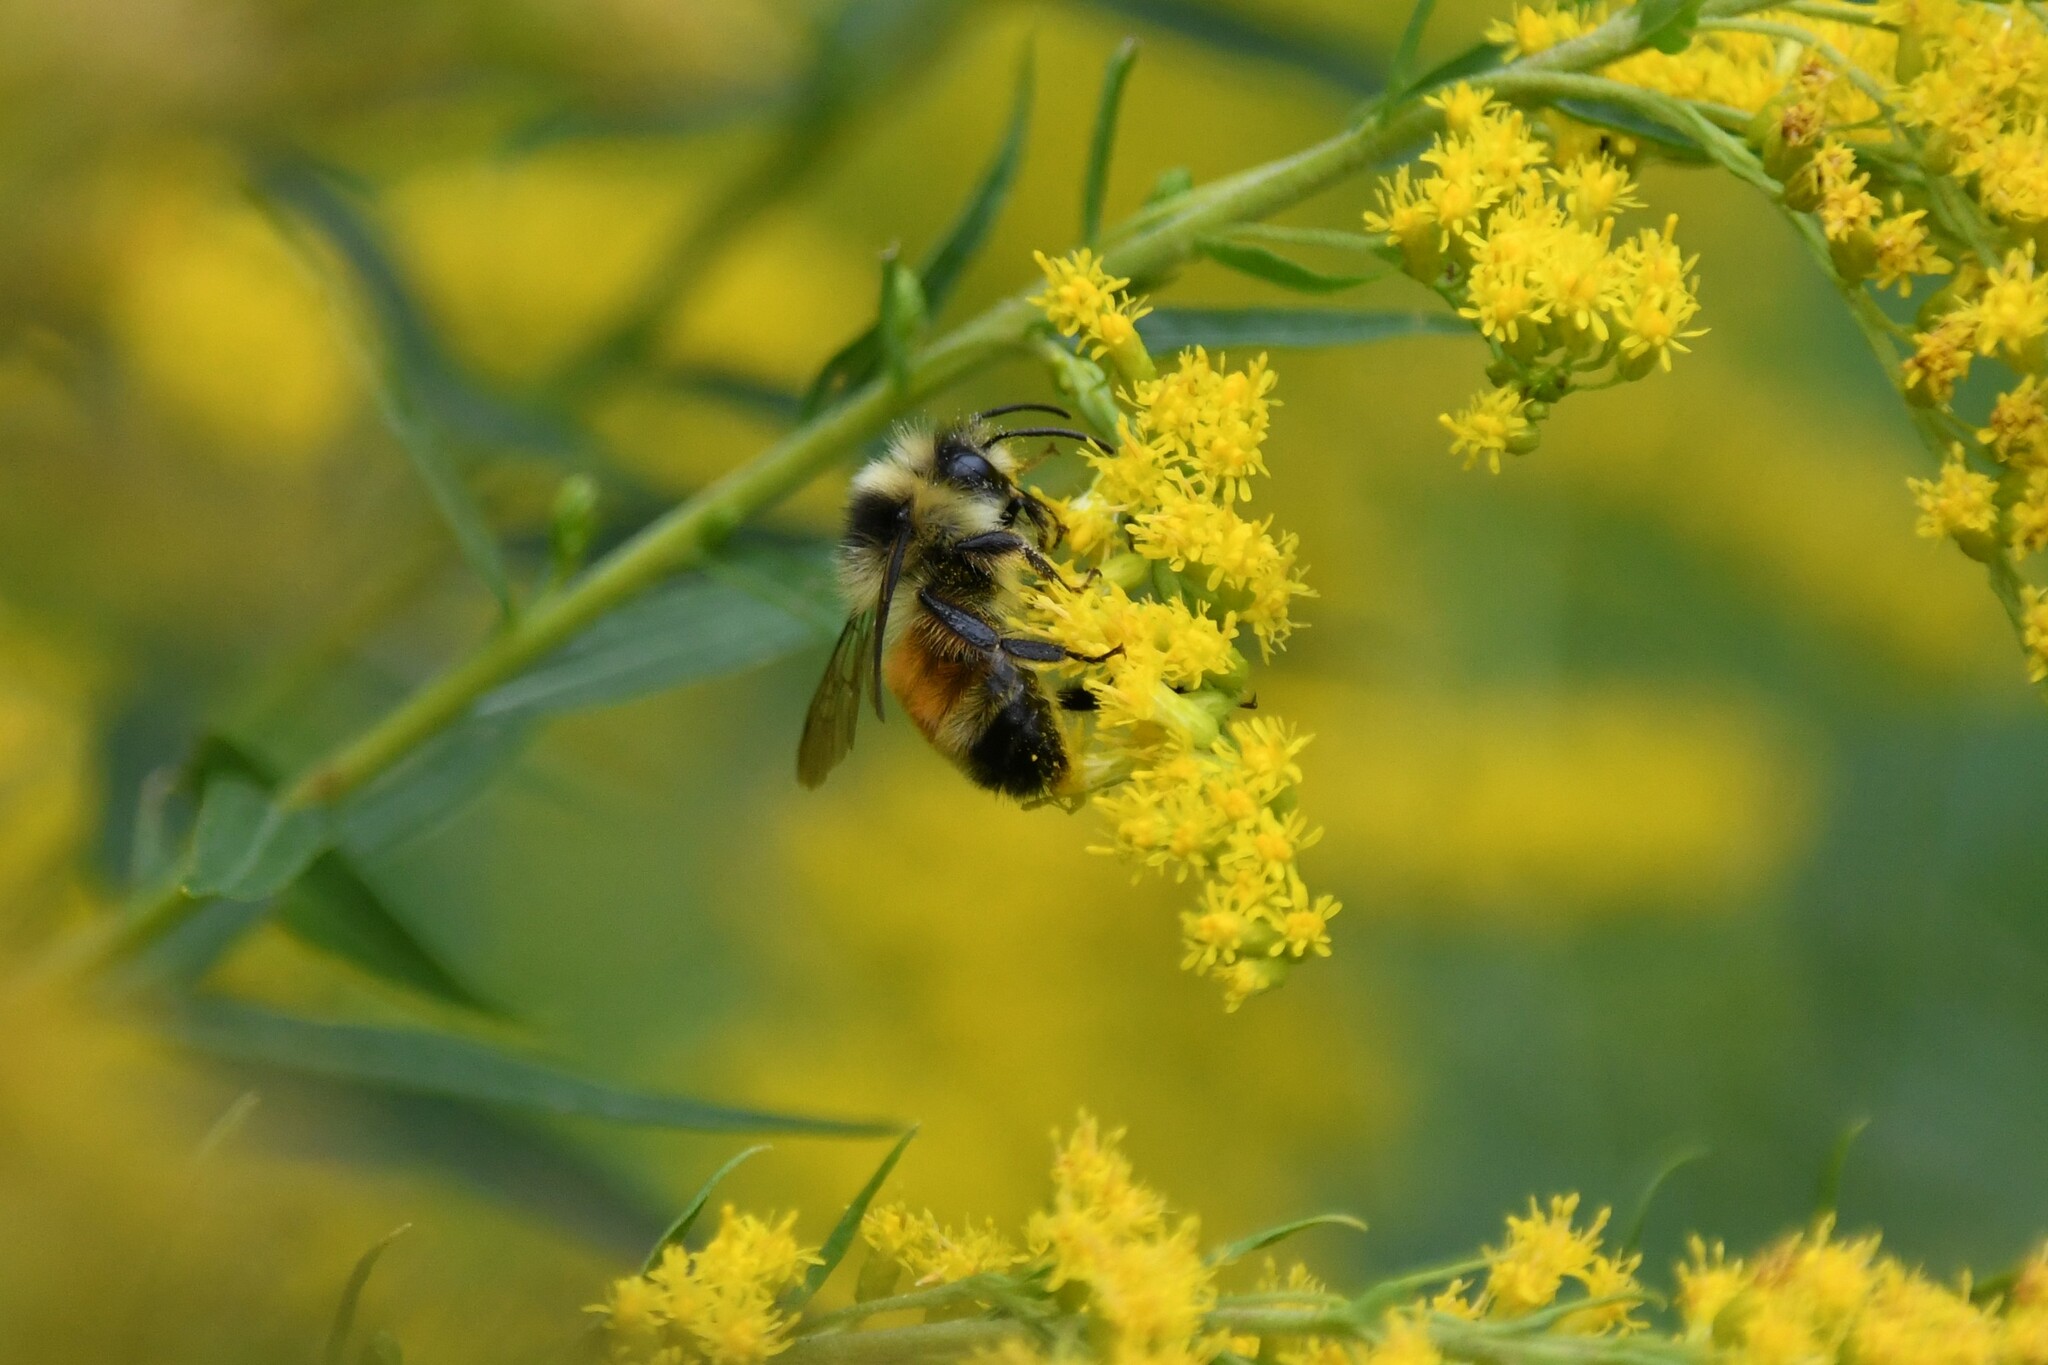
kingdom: Animalia
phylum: Arthropoda
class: Insecta
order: Hymenoptera
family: Apidae
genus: Bombus
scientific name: Bombus ternarius
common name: Tri-colored bumble bee
